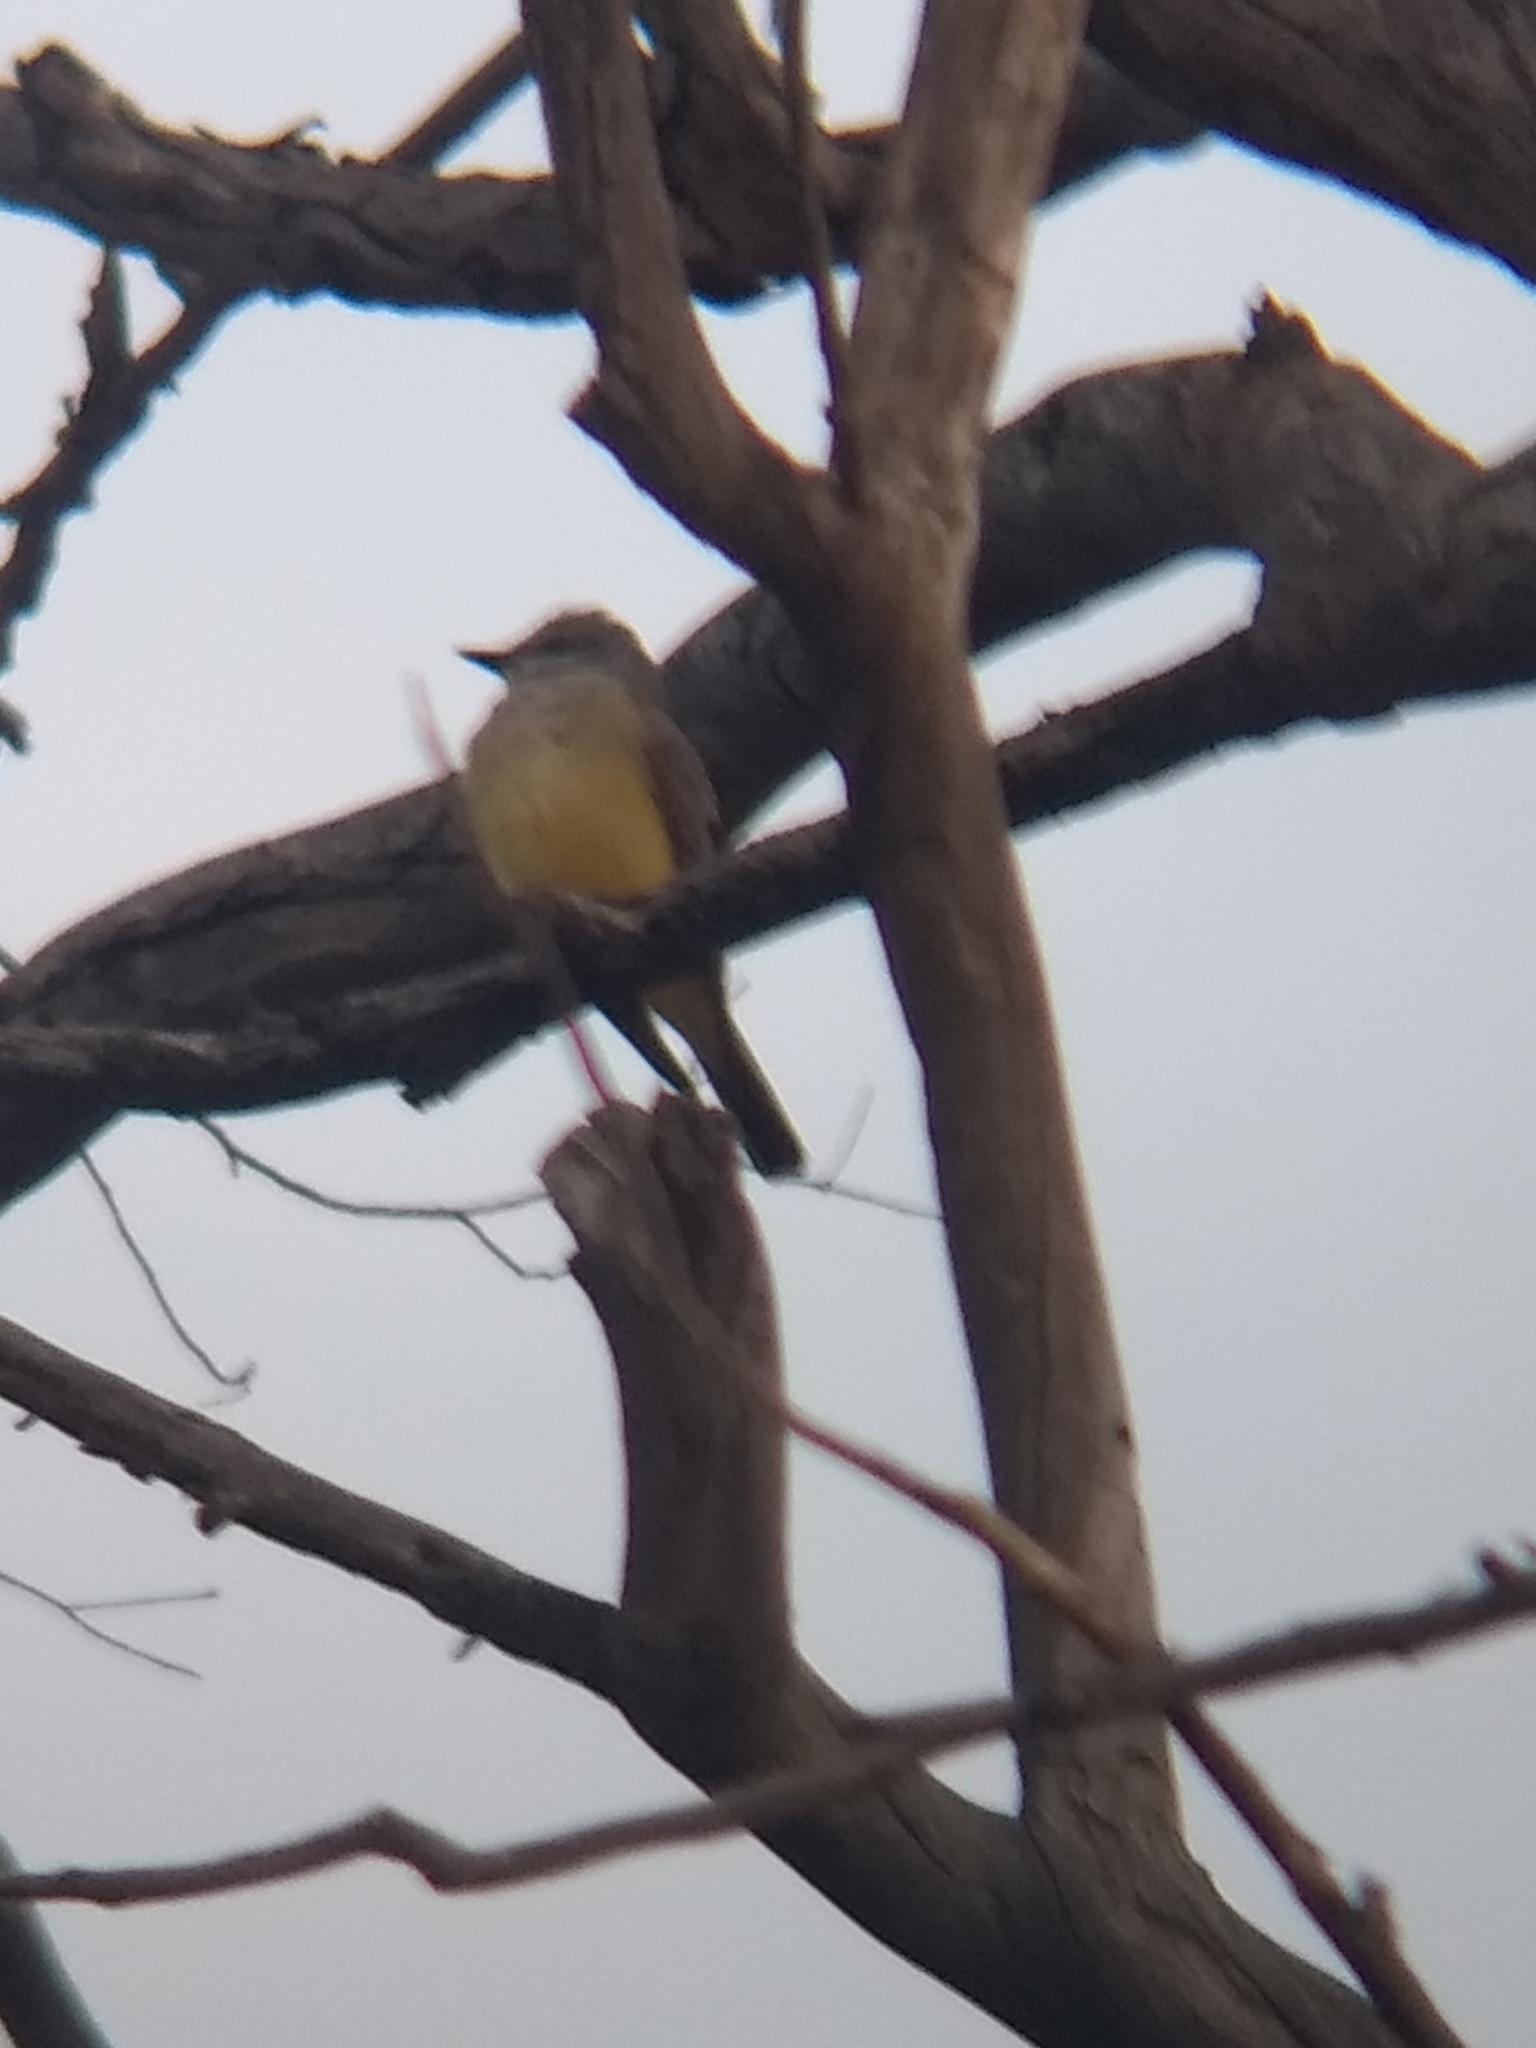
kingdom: Animalia
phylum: Chordata
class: Aves
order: Passeriformes
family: Tyrannidae
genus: Tyrannus
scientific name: Tyrannus verticalis
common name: Western kingbird
